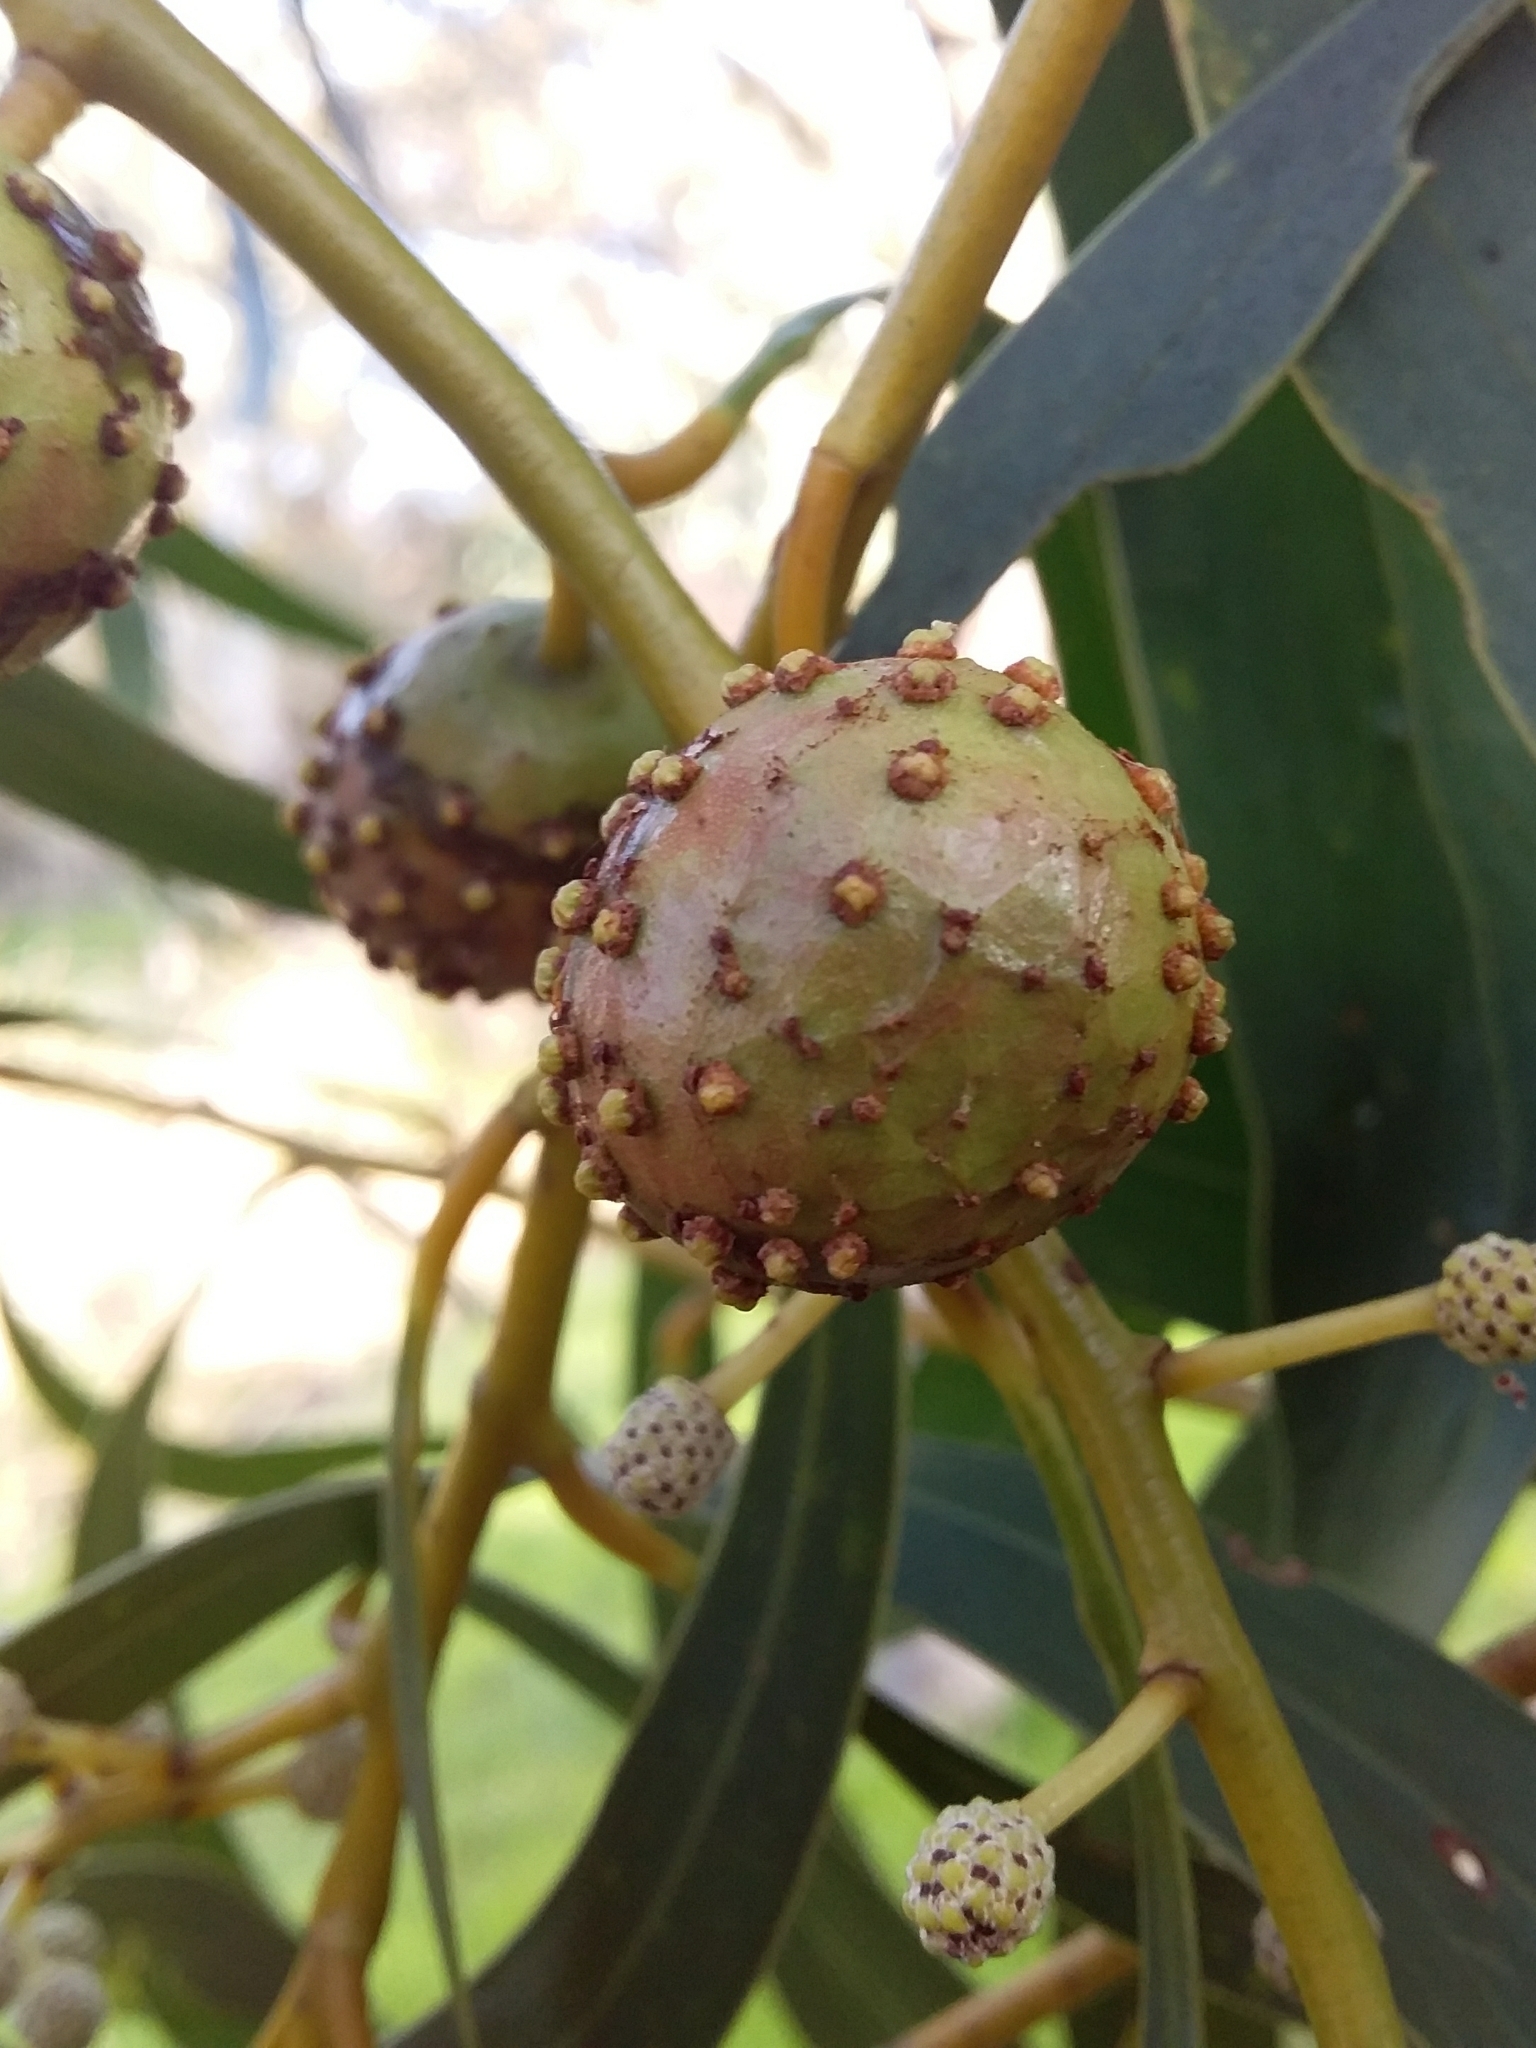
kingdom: Animalia
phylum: Arthropoda
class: Insecta
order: Hymenoptera
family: Pteromalidae
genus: Trichilogaster
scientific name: Trichilogaster signiventris
